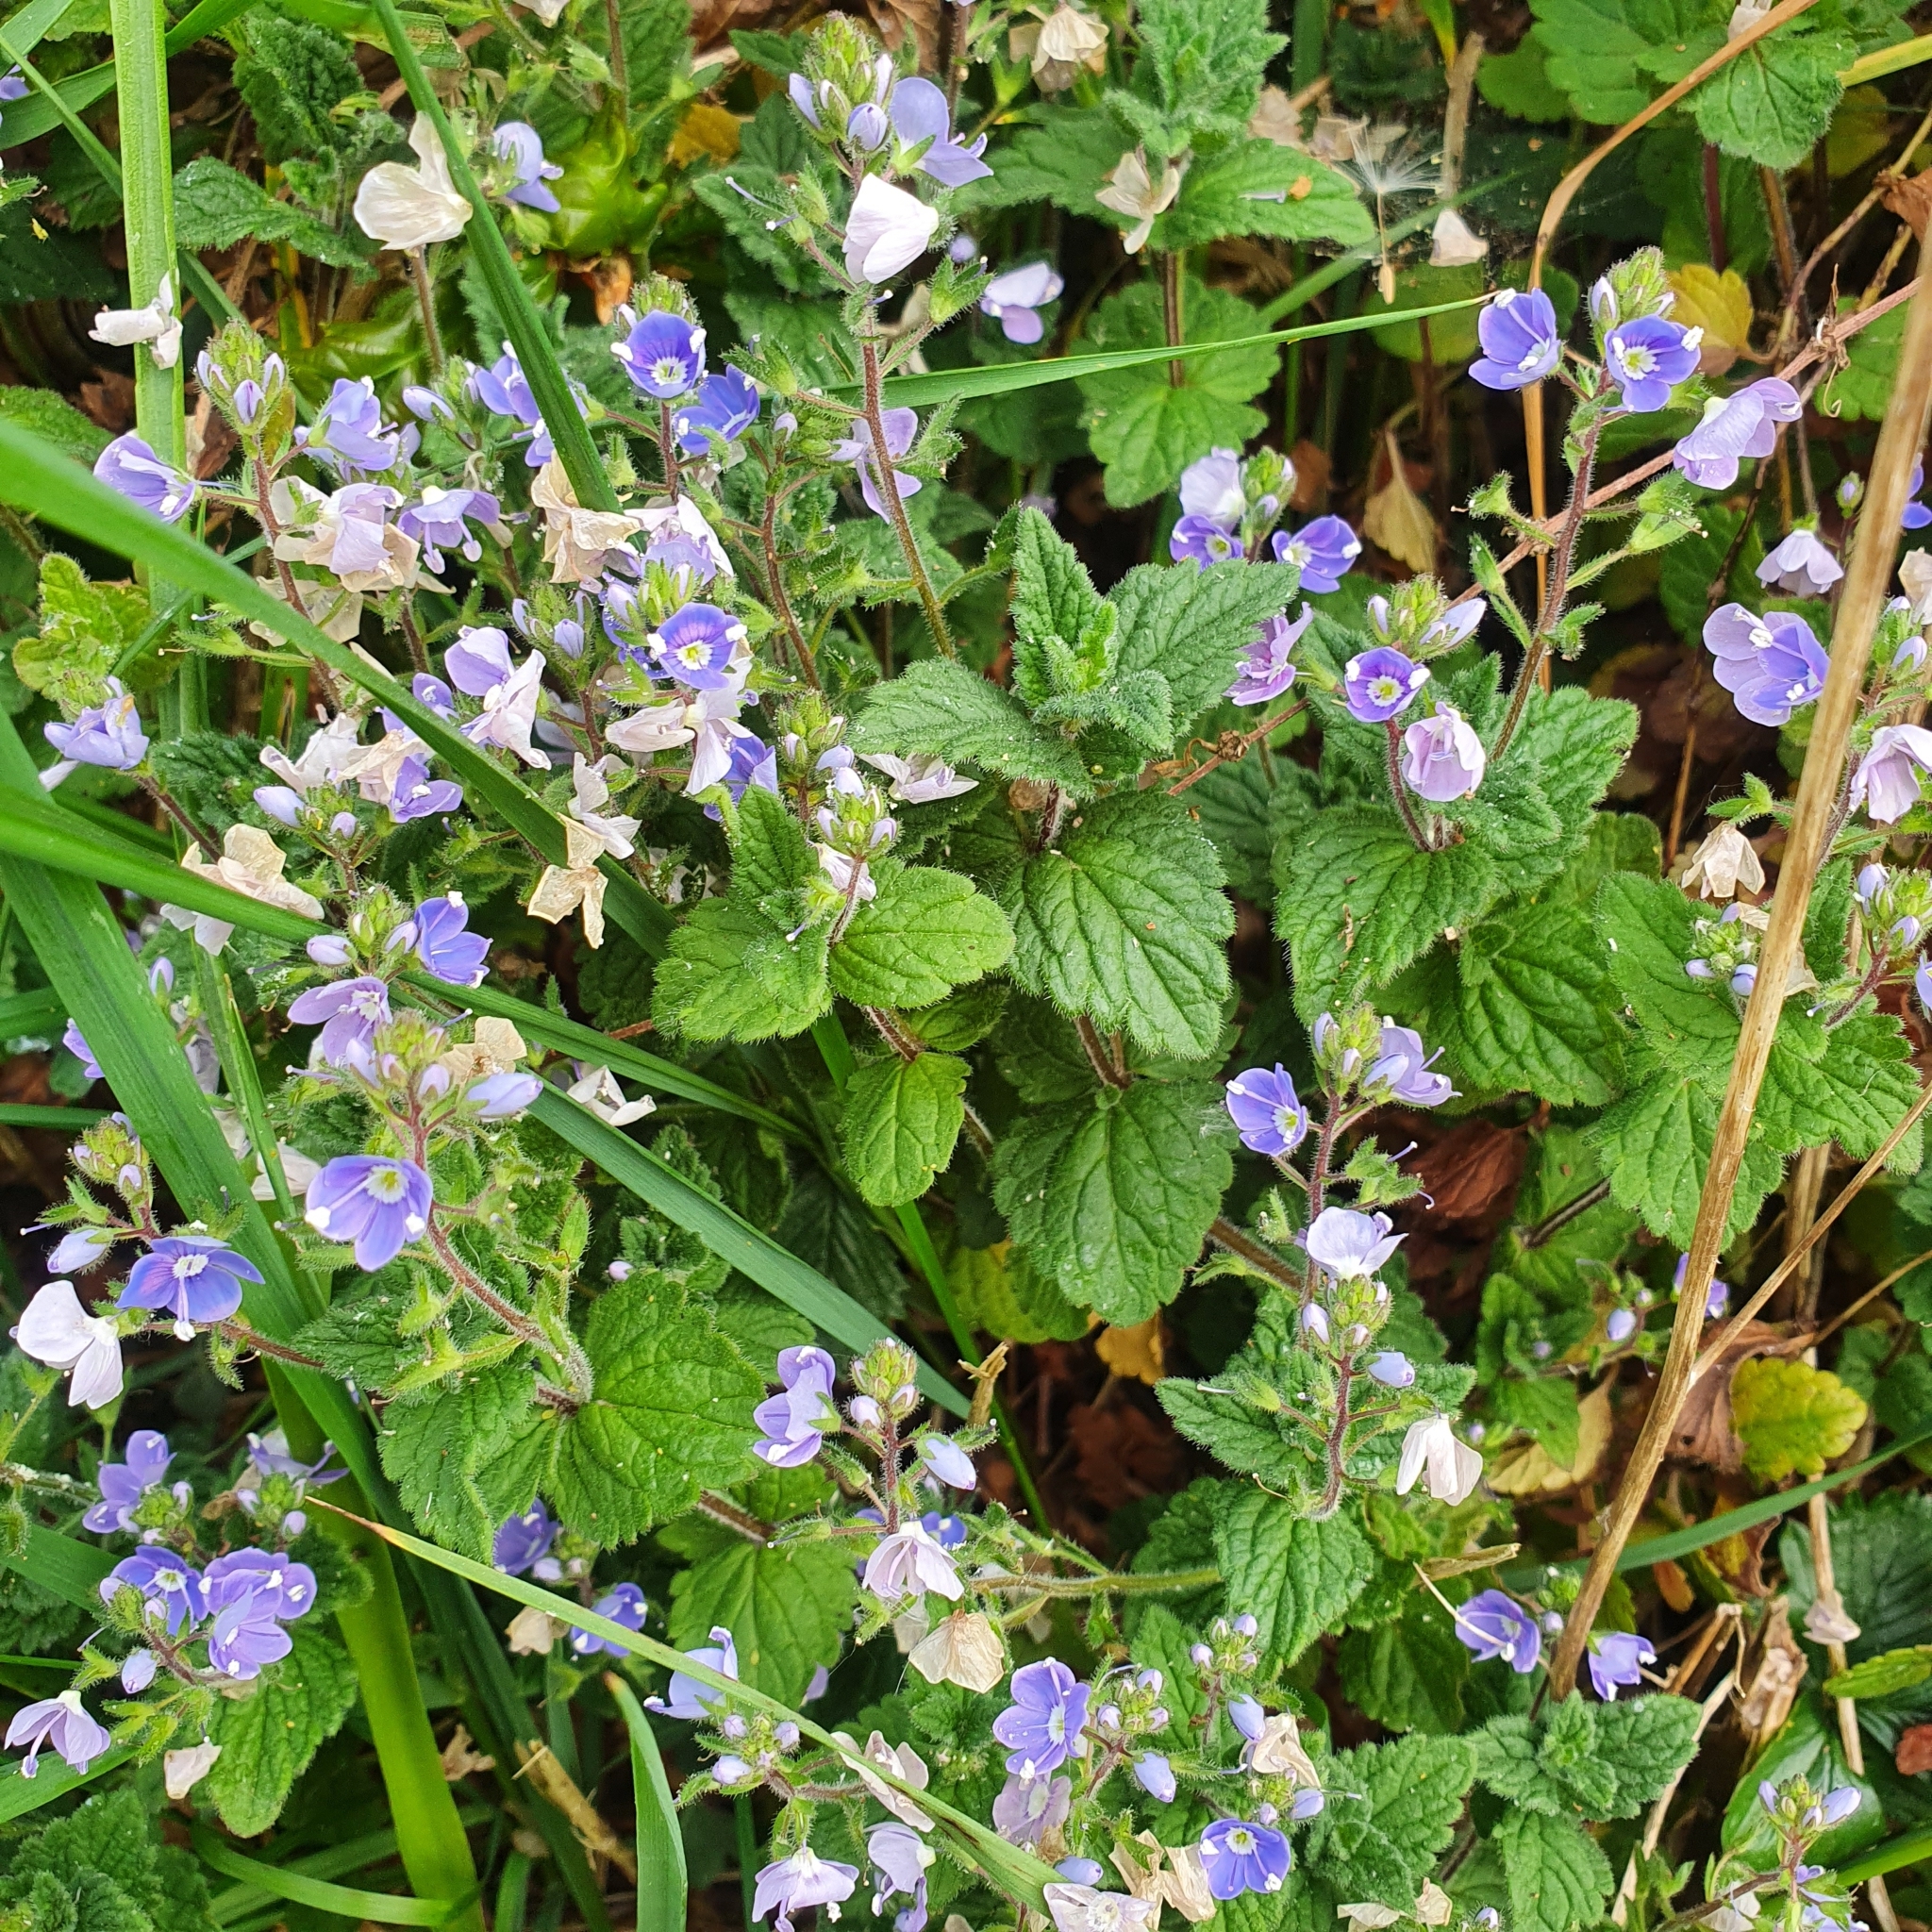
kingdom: Plantae
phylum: Tracheophyta
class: Magnoliopsida
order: Lamiales
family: Plantaginaceae
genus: Veronica
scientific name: Veronica chamaedrys
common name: Germander speedwell
